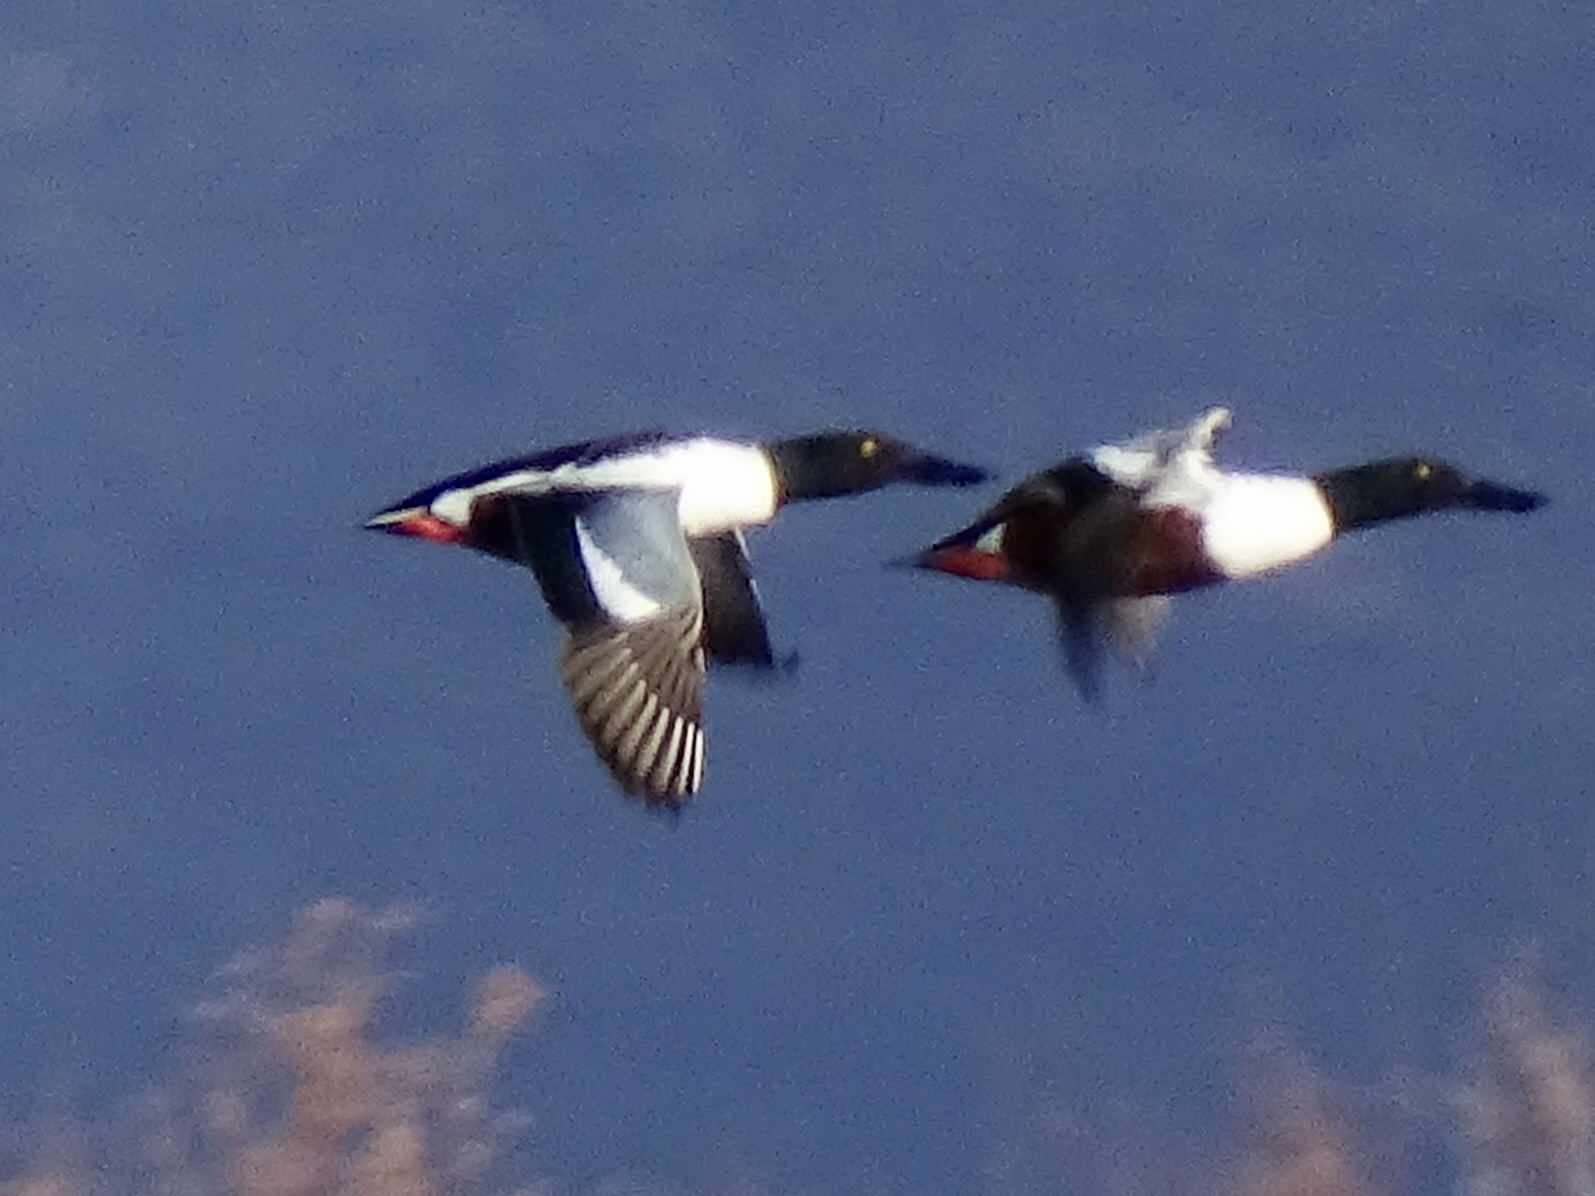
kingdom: Animalia
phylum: Chordata
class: Aves
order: Anseriformes
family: Anatidae
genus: Spatula
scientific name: Spatula clypeata
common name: Northern shoveler
